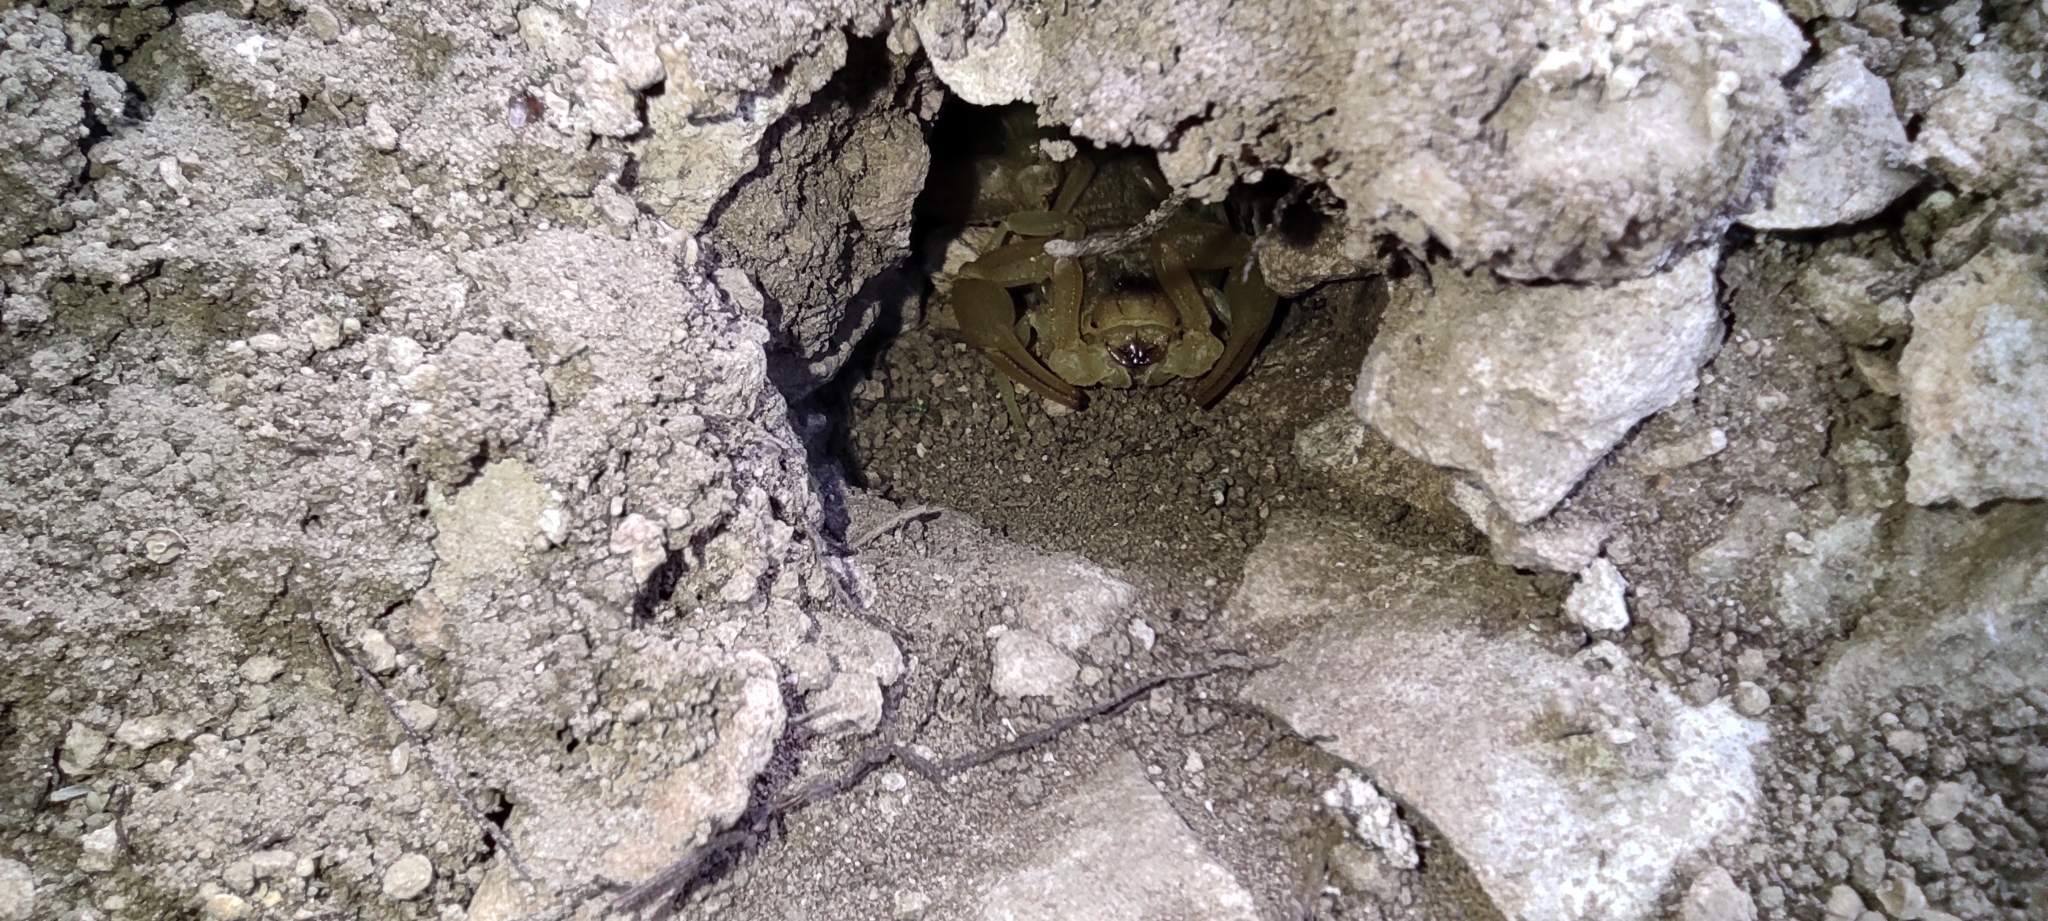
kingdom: Animalia
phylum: Arthropoda
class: Arachnida
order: Scorpiones
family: Buthidae
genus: Buthus
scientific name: Buthus occitanus
